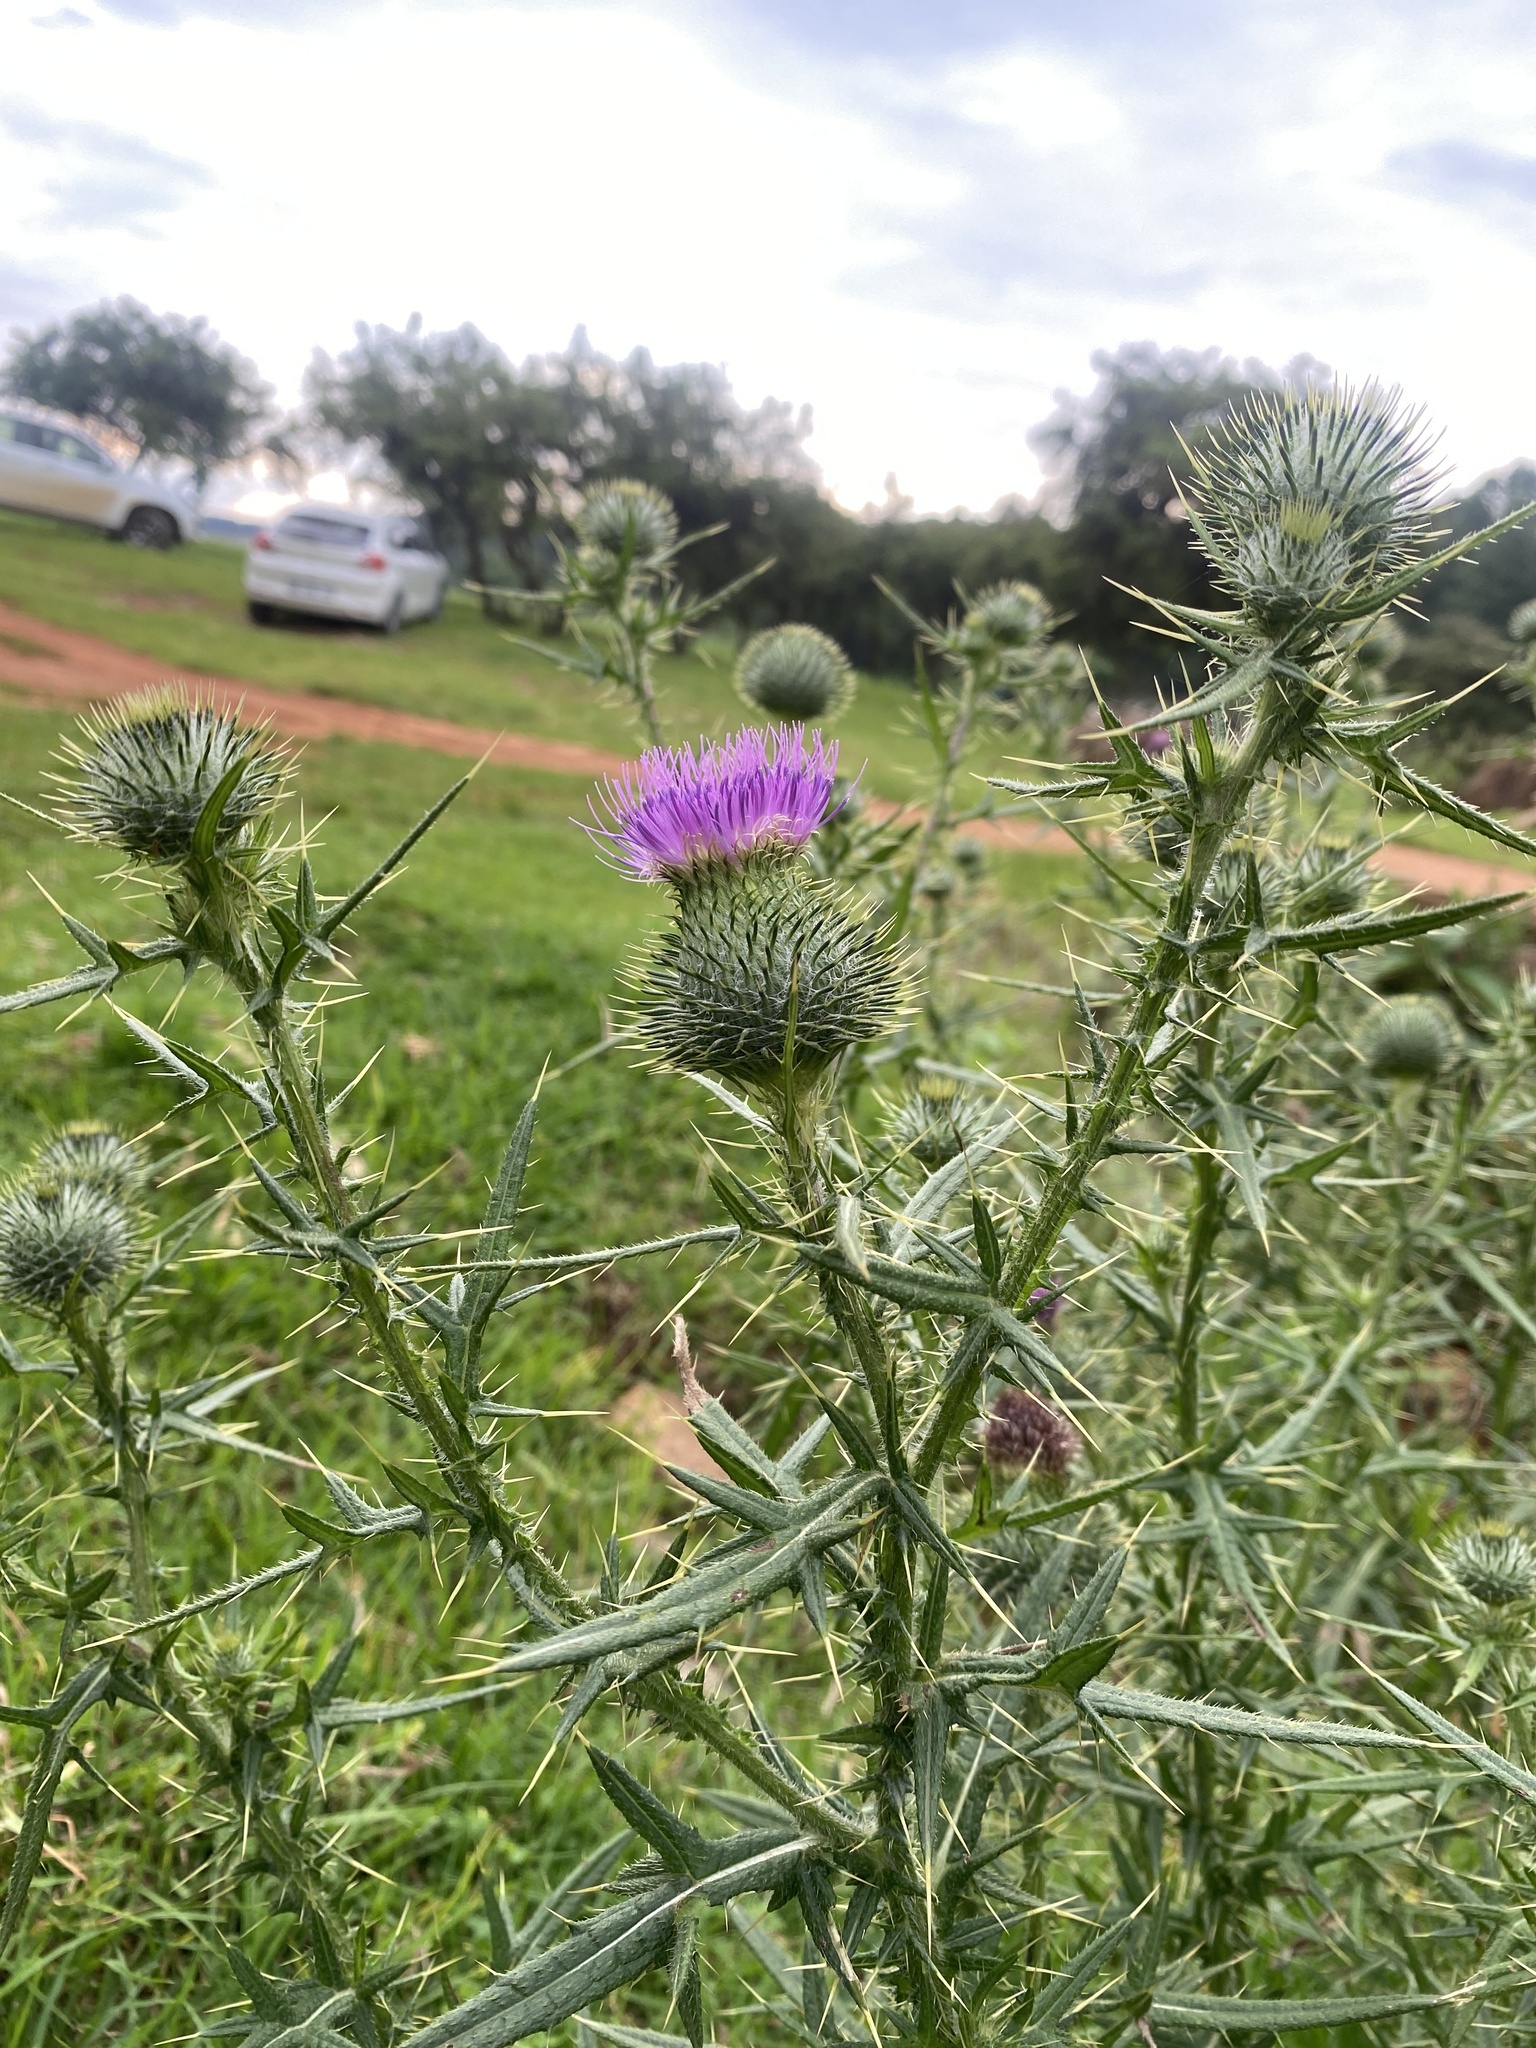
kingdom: Plantae
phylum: Tracheophyta
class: Magnoliopsida
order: Asterales
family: Asteraceae
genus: Cirsium
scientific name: Cirsium vulgare
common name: Bull thistle
